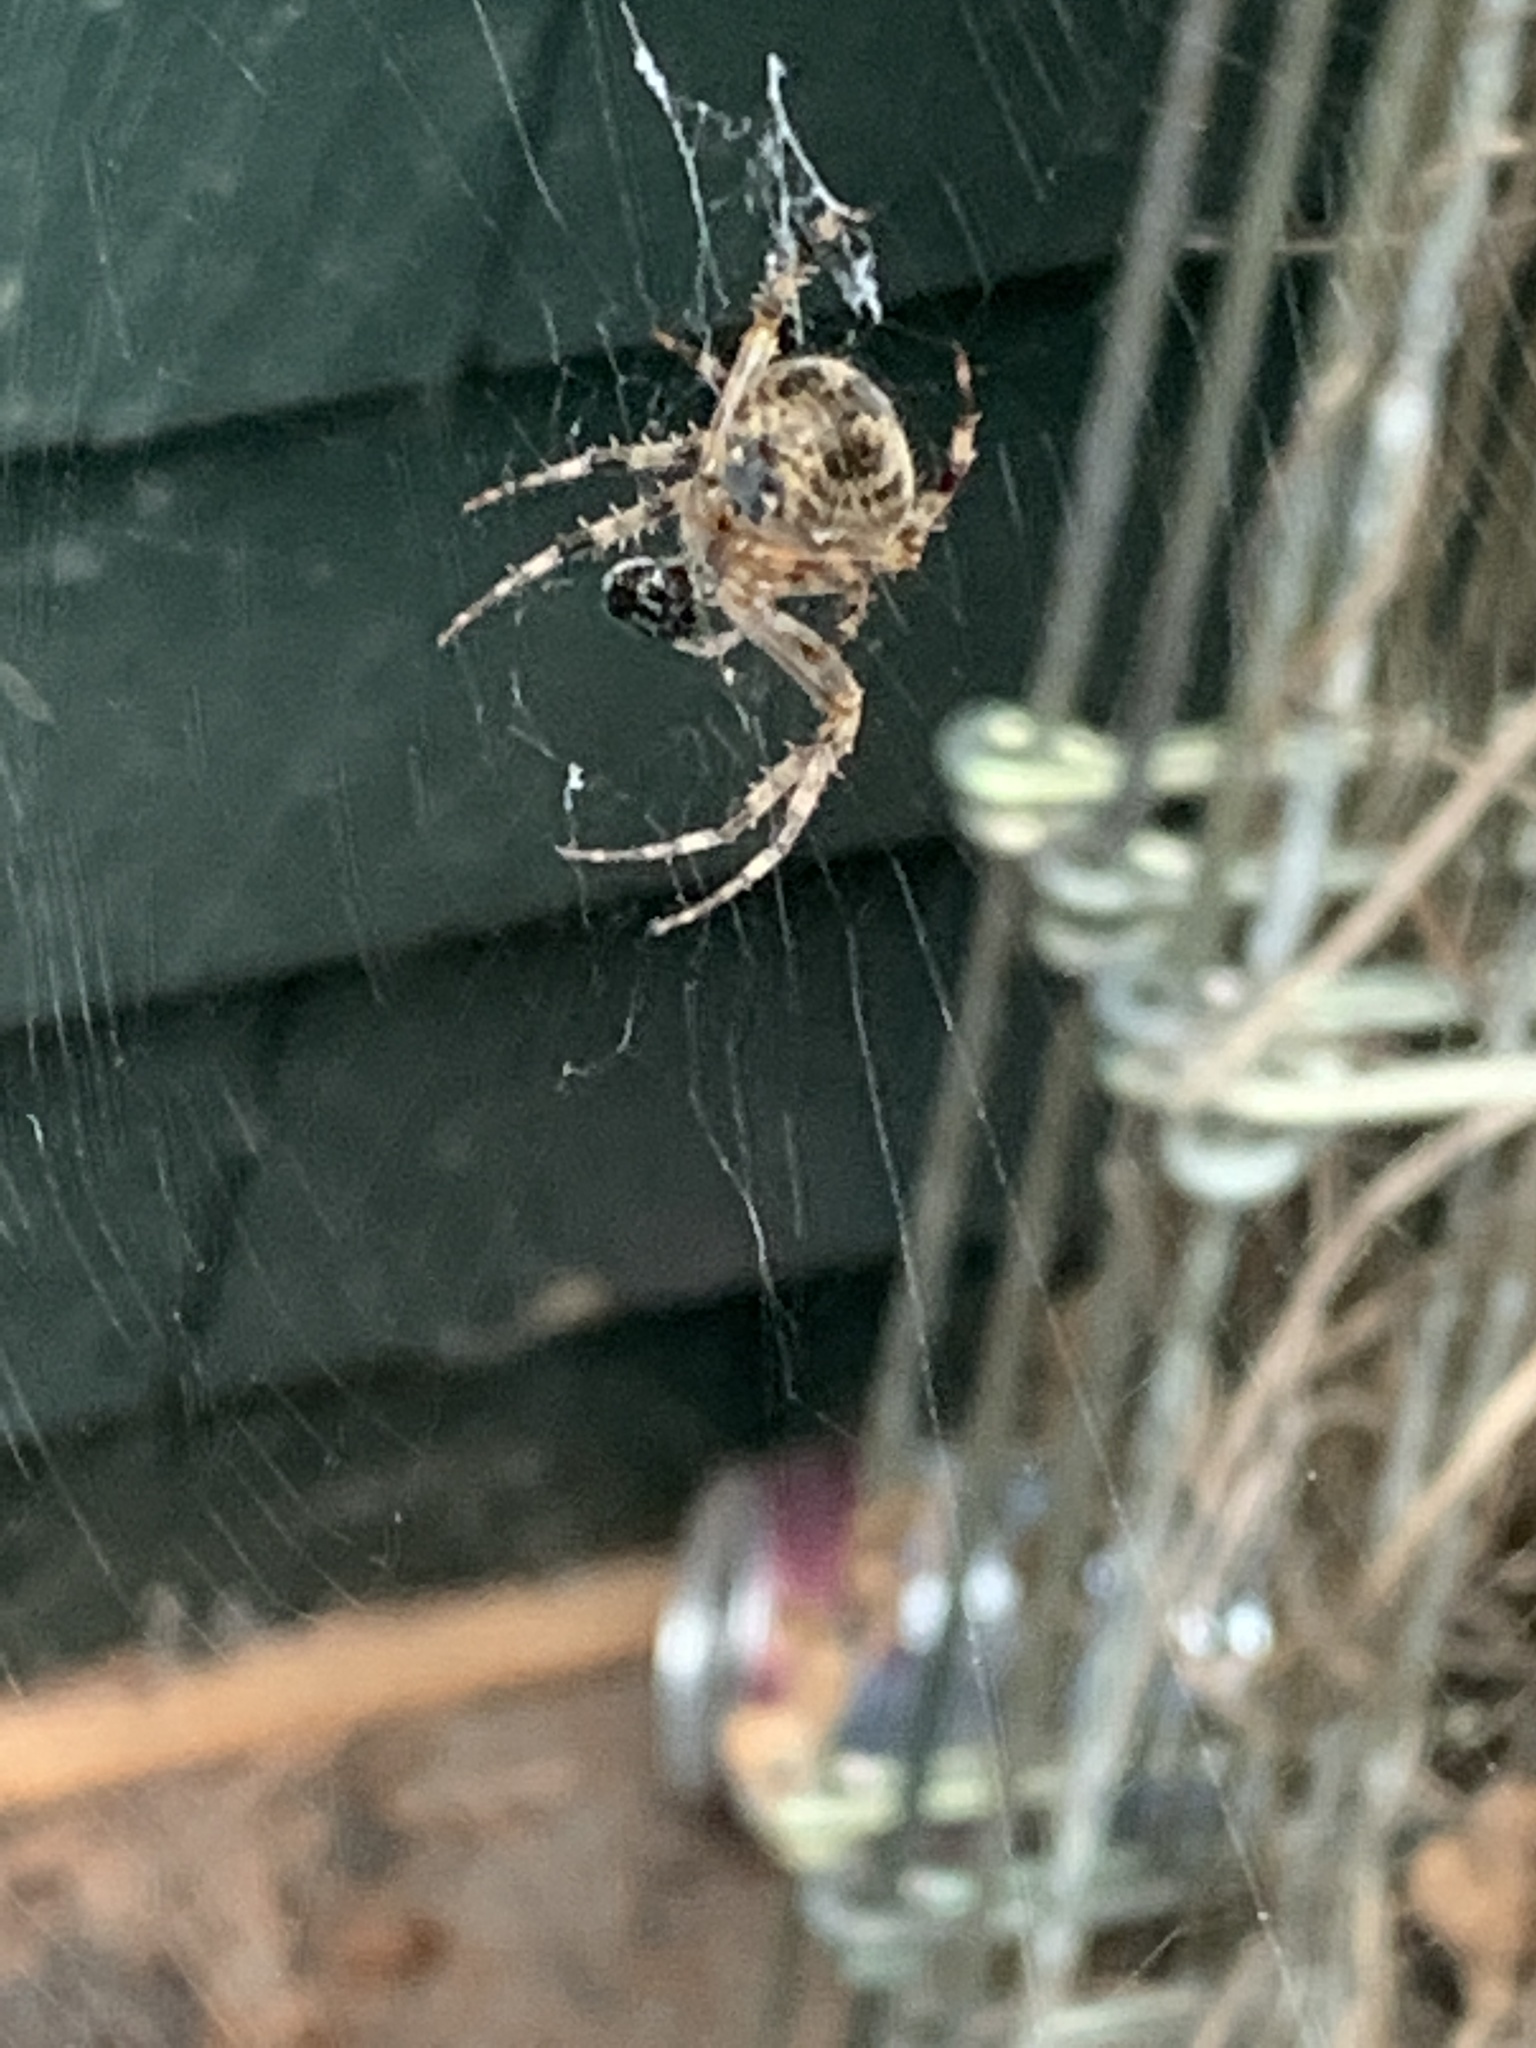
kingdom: Animalia
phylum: Arthropoda
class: Arachnida
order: Araneae
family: Araneidae
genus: Araneus
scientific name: Araneus diadematus
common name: Cross orbweaver
